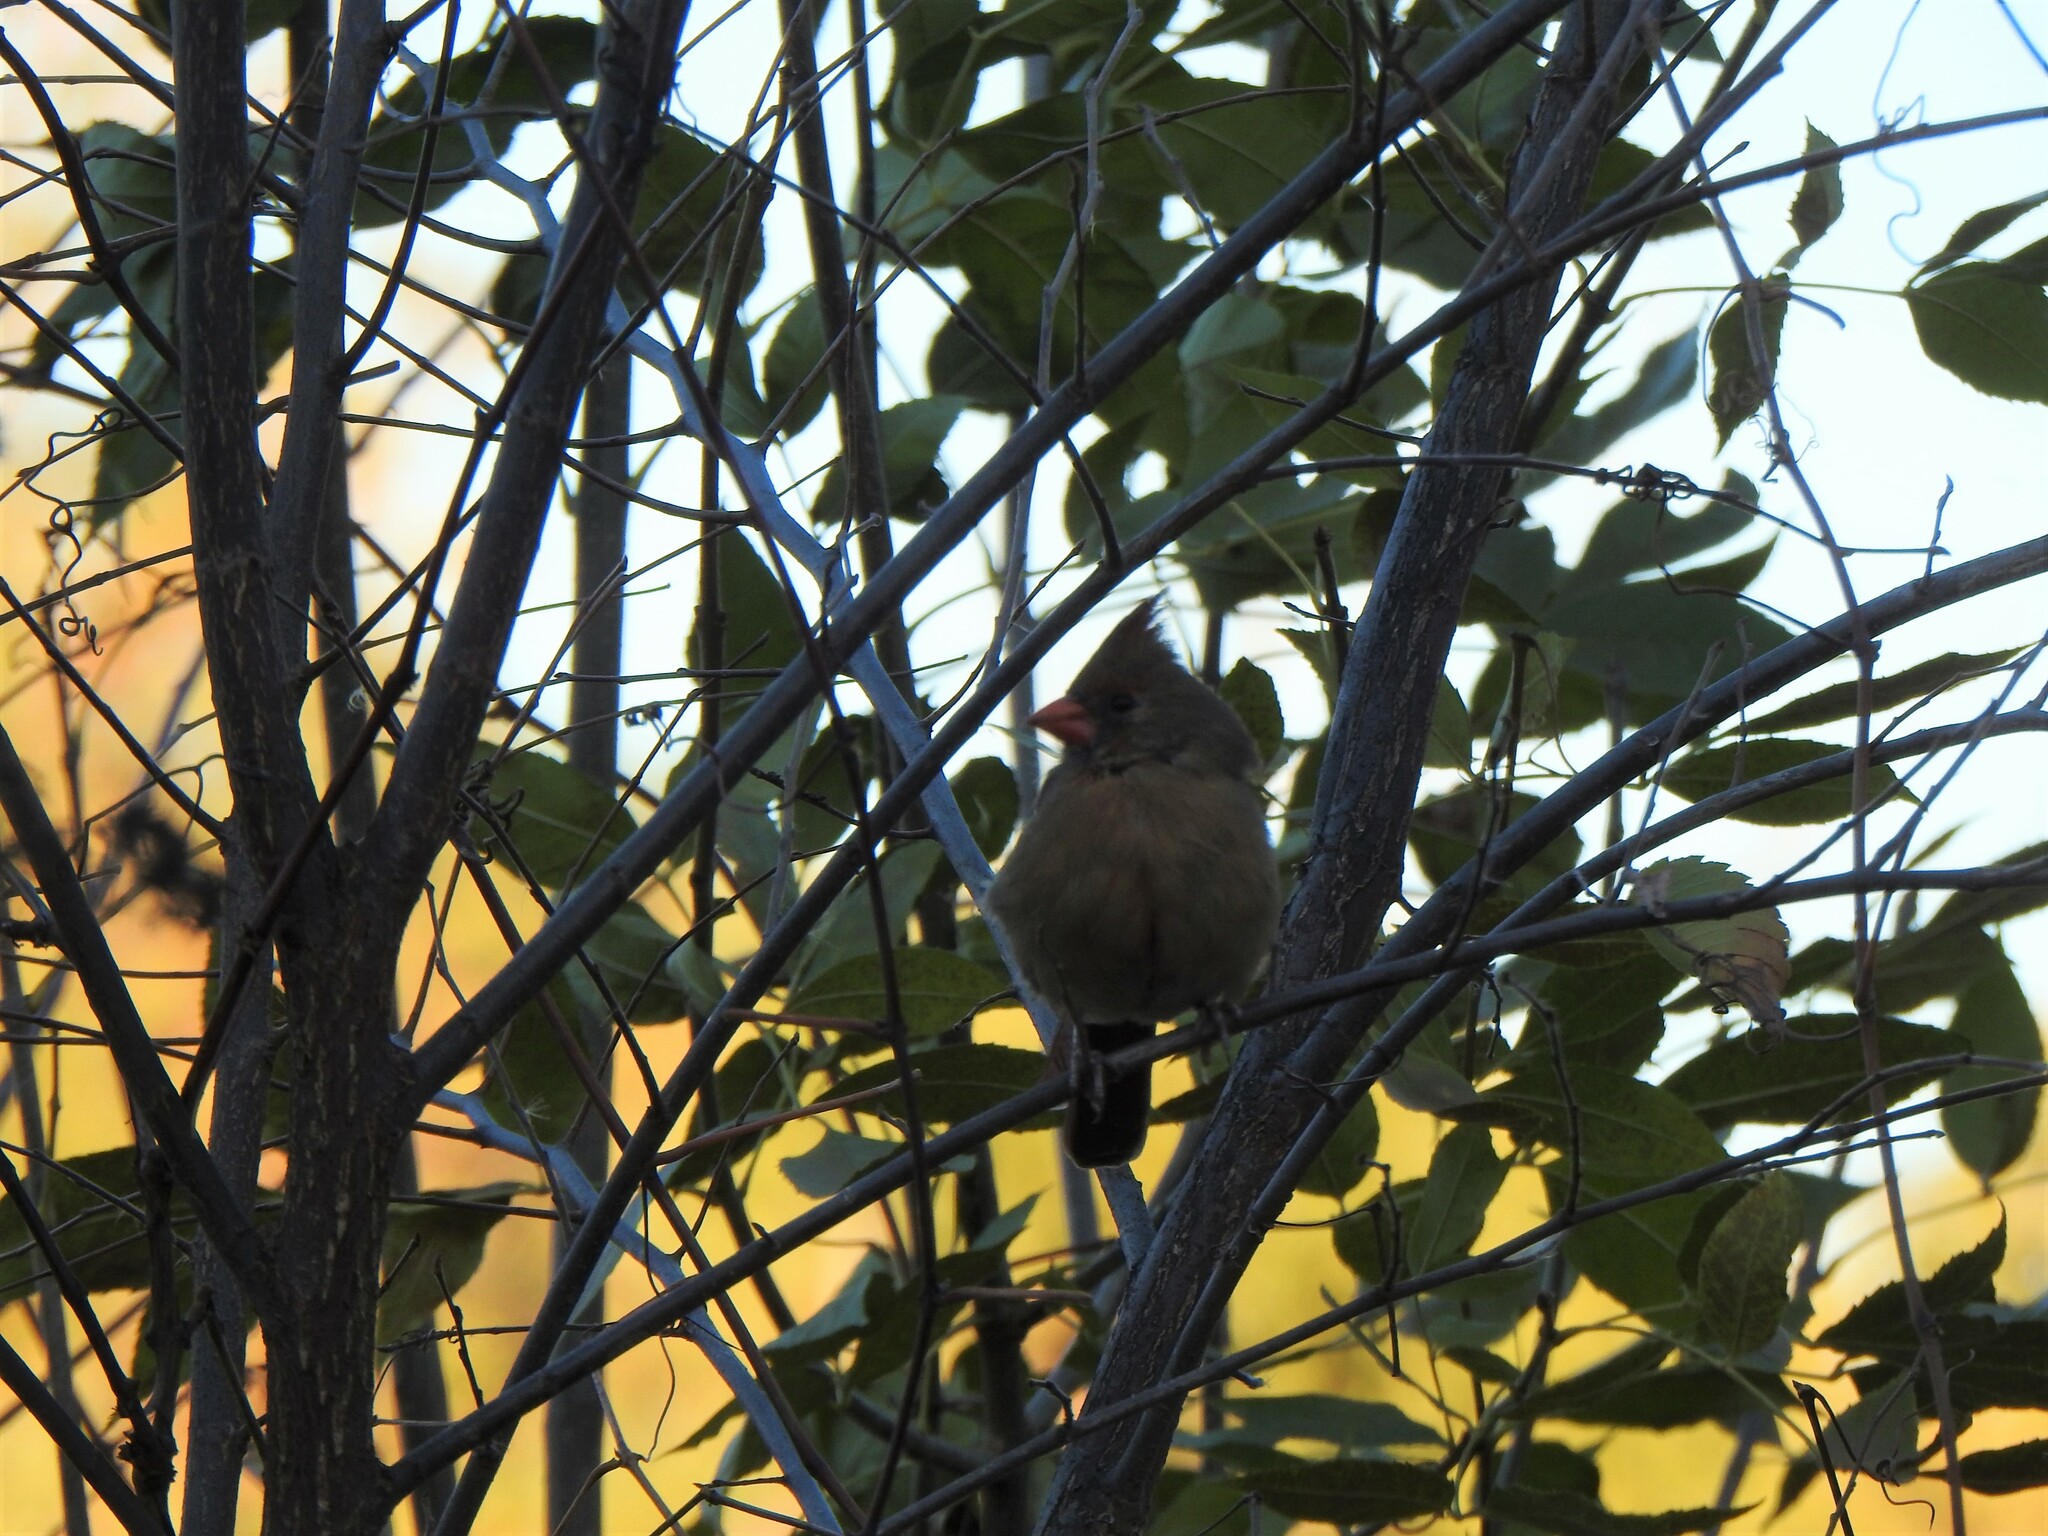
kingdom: Animalia
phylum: Chordata
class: Aves
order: Passeriformes
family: Cardinalidae
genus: Cardinalis
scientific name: Cardinalis cardinalis
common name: Northern cardinal
